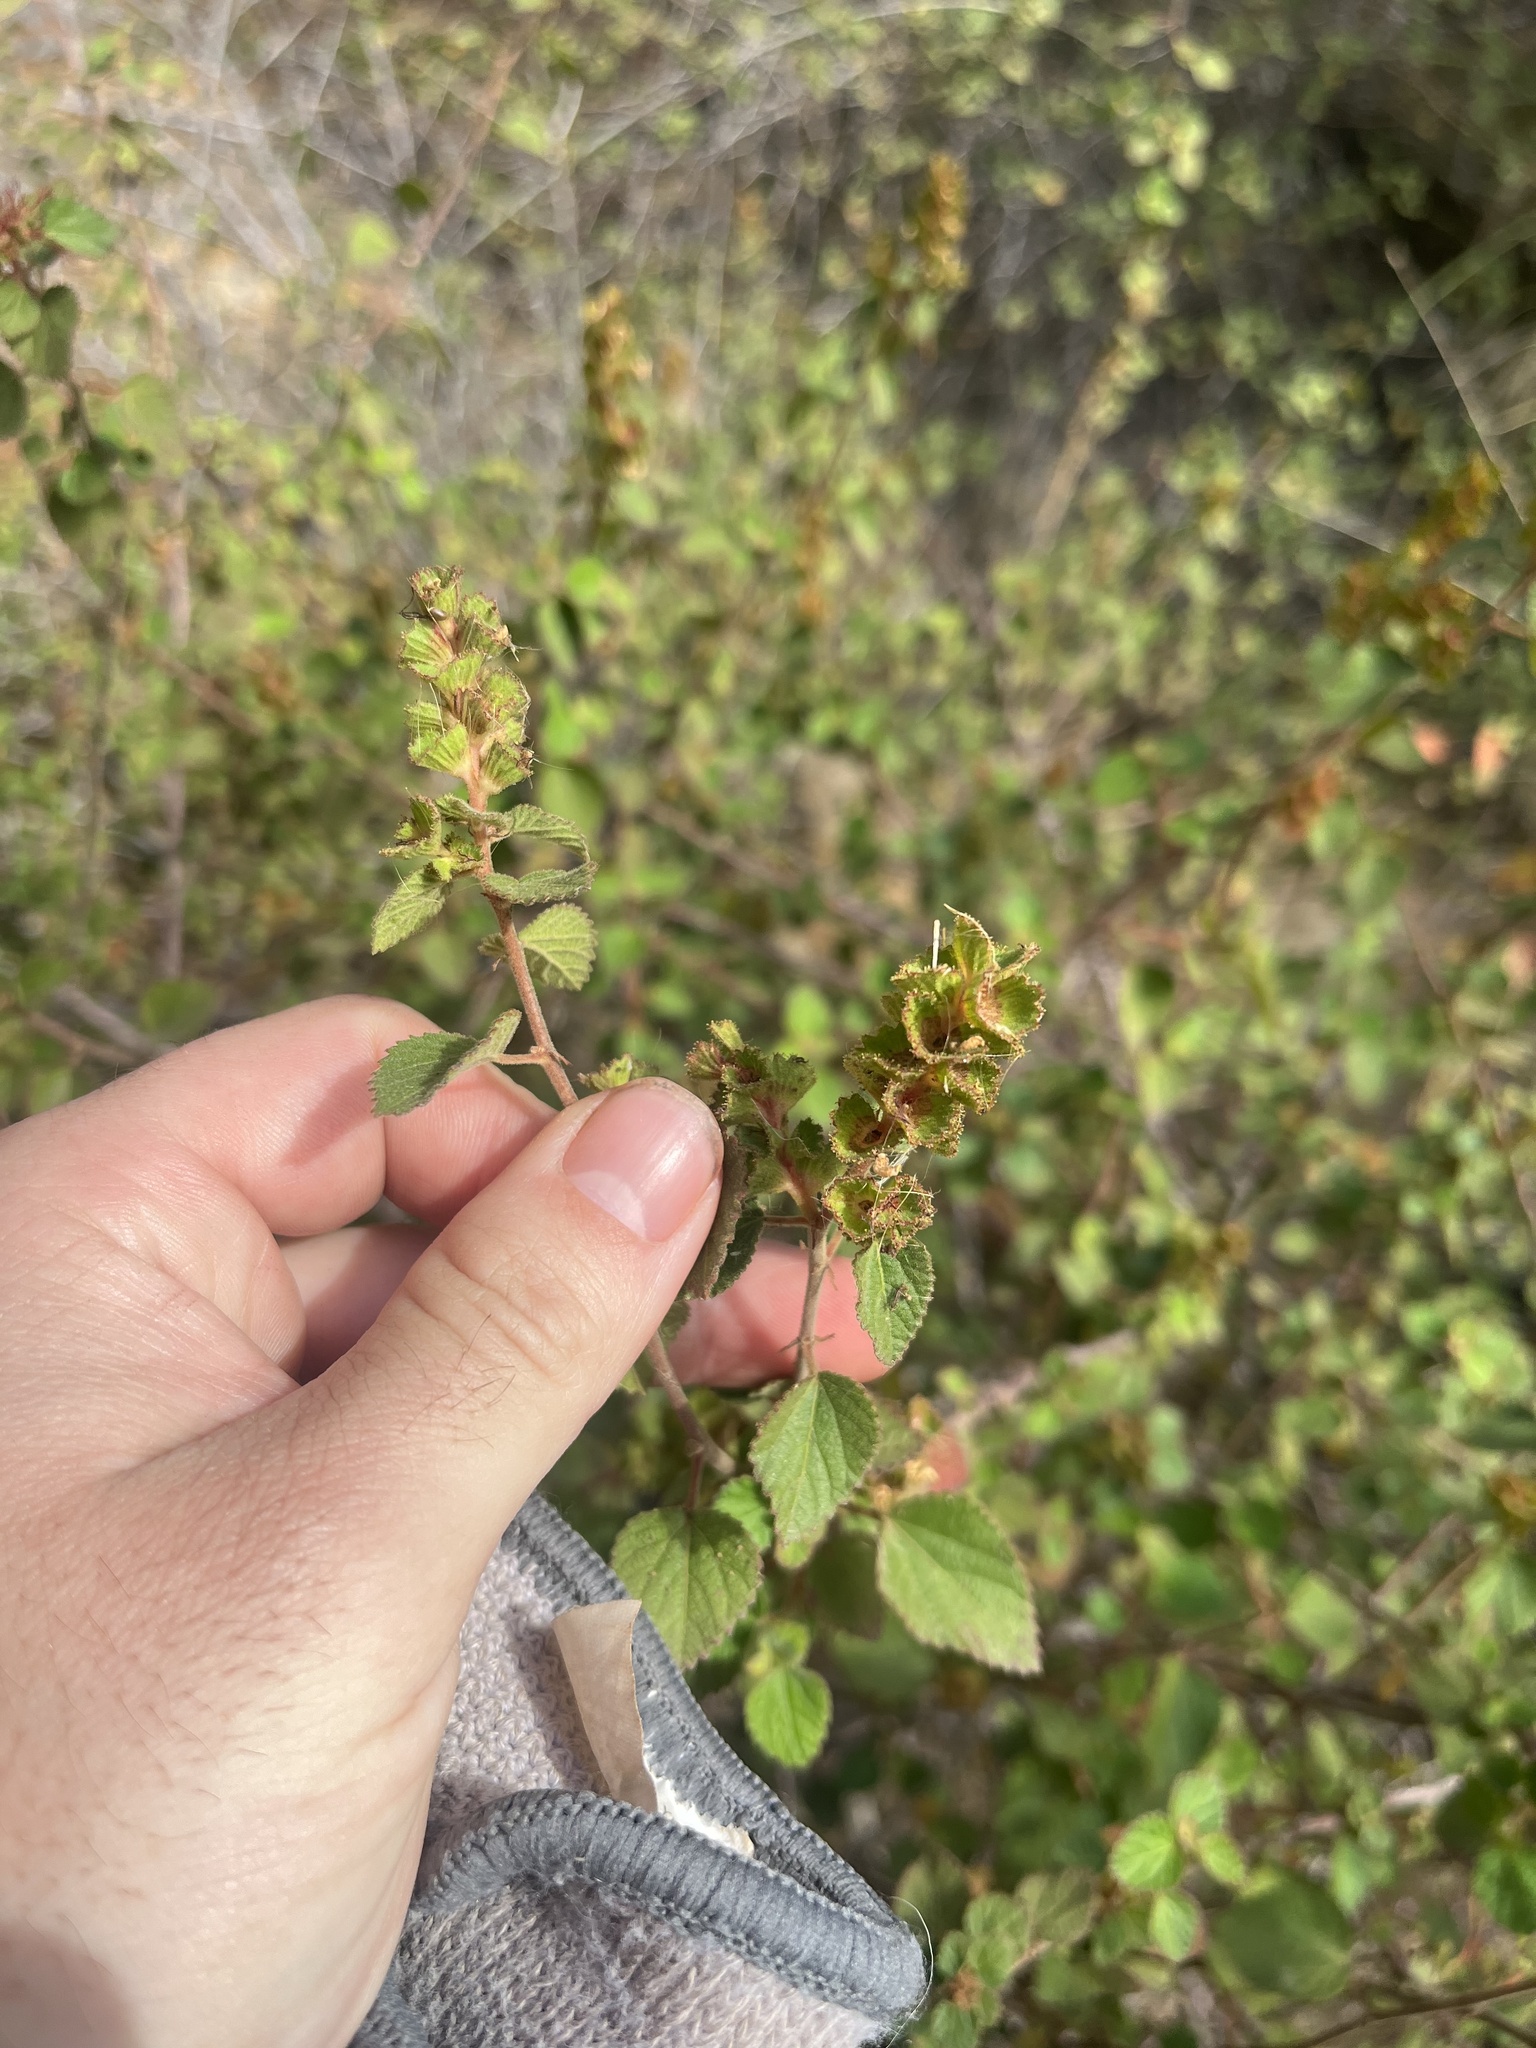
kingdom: Plantae
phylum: Tracheophyta
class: Magnoliopsida
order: Malpighiales
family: Euphorbiaceae
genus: Acalypha
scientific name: Acalypha californica
